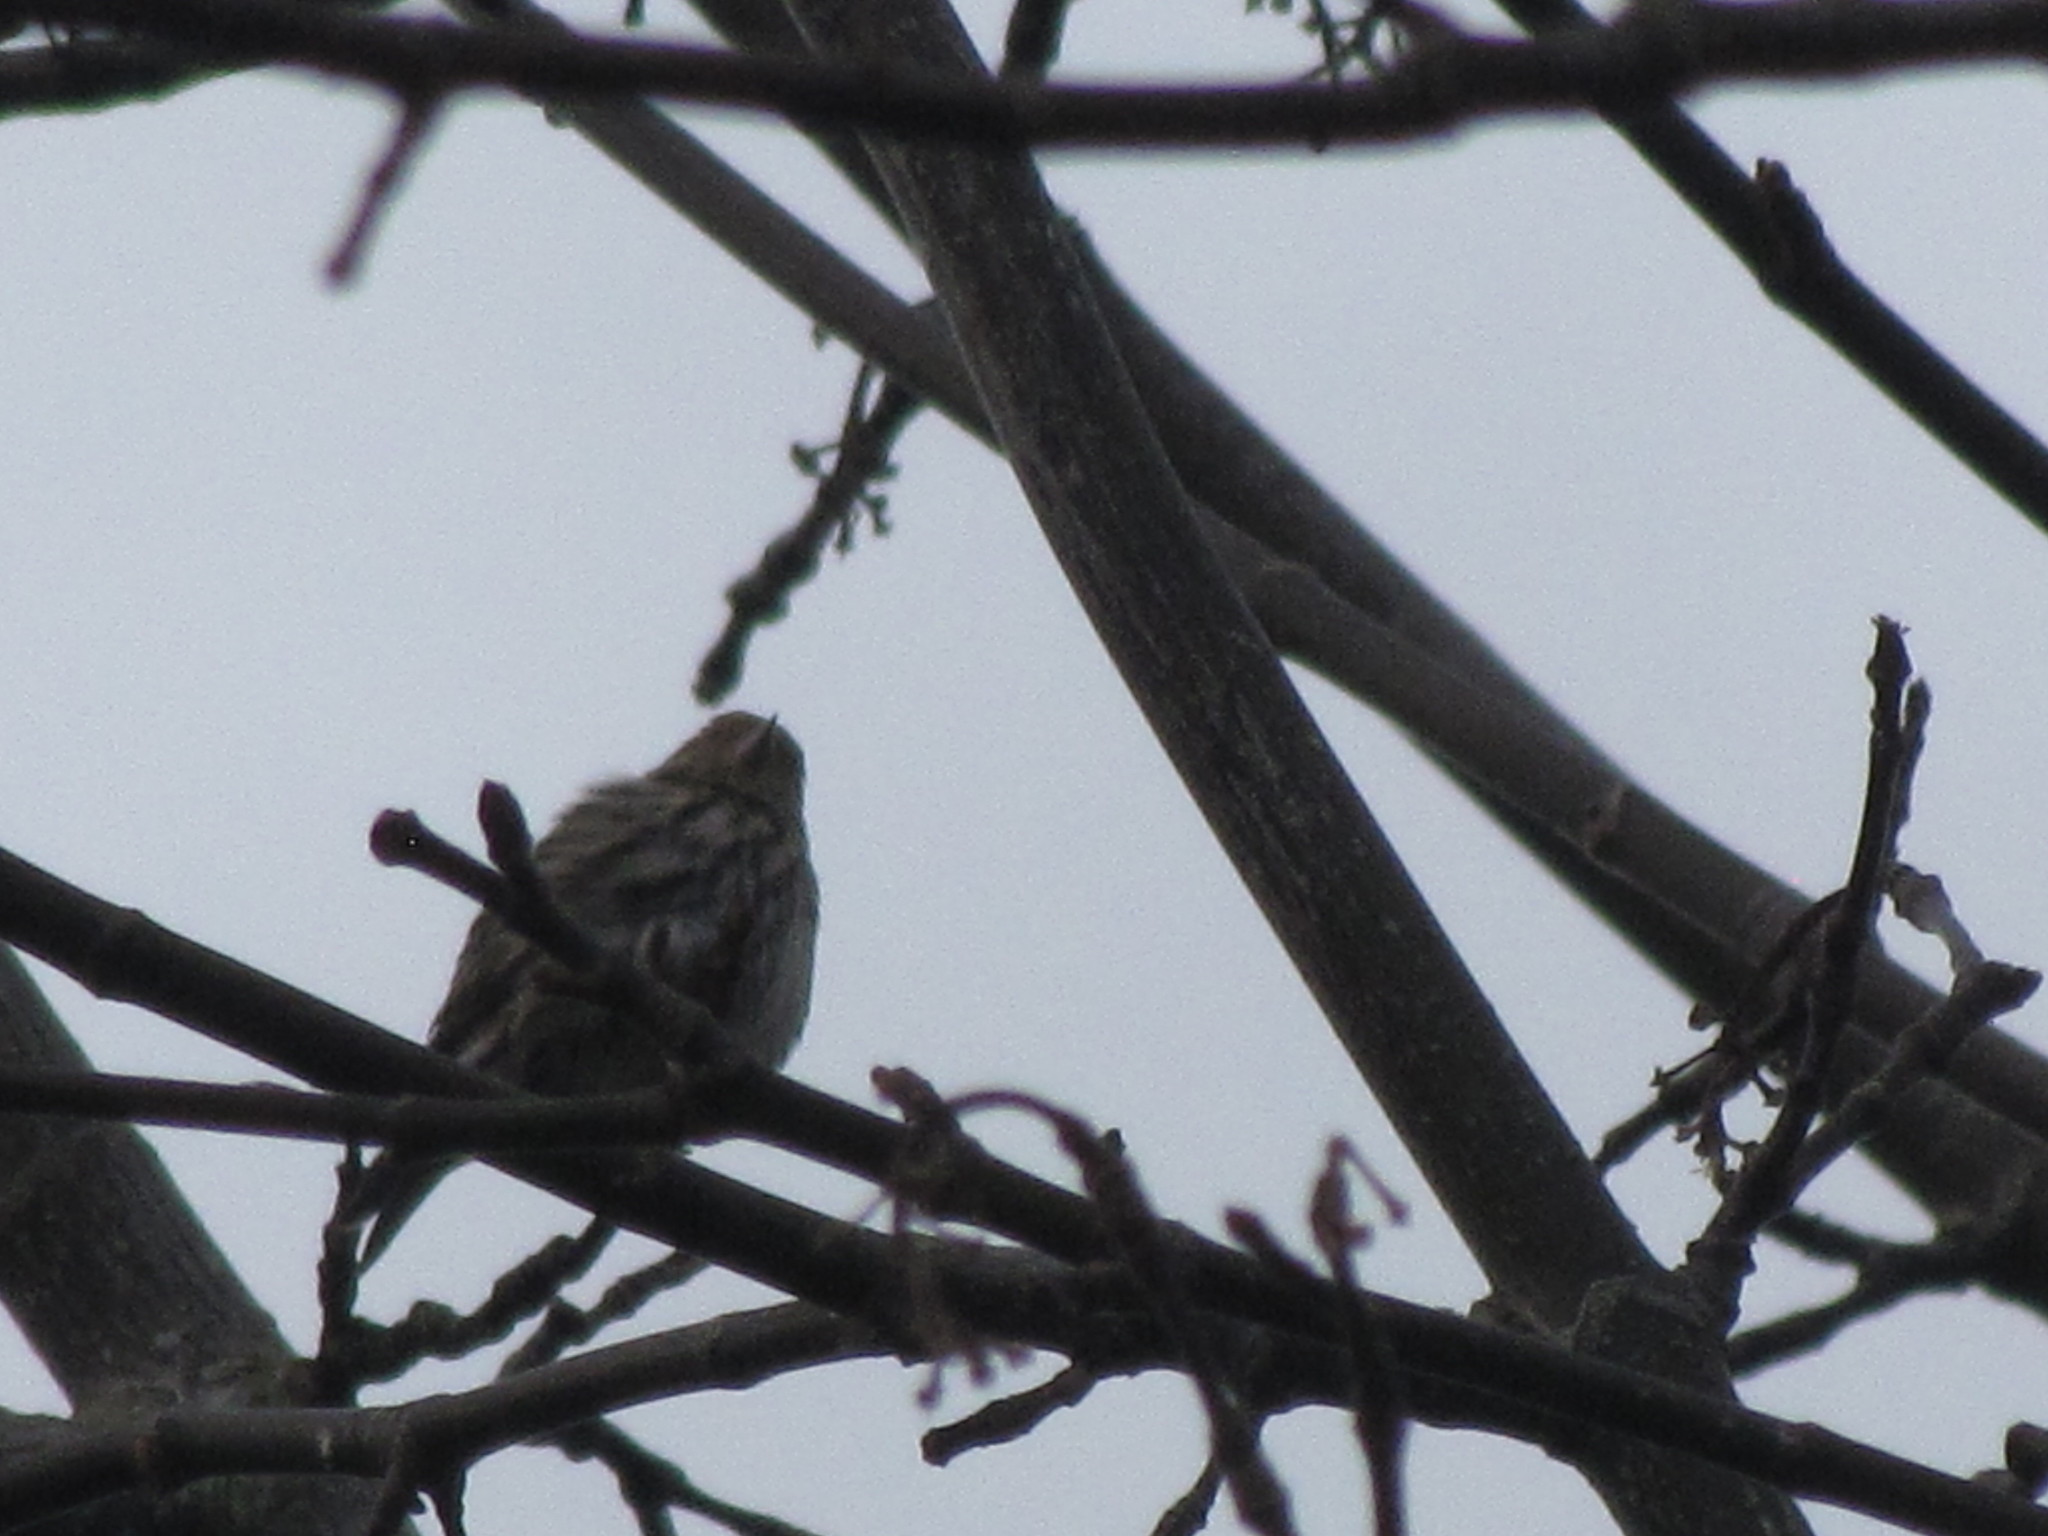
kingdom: Animalia
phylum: Chordata
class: Aves
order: Passeriformes
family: Fringillidae
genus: Spinus
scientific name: Spinus pinus
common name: Pine siskin
